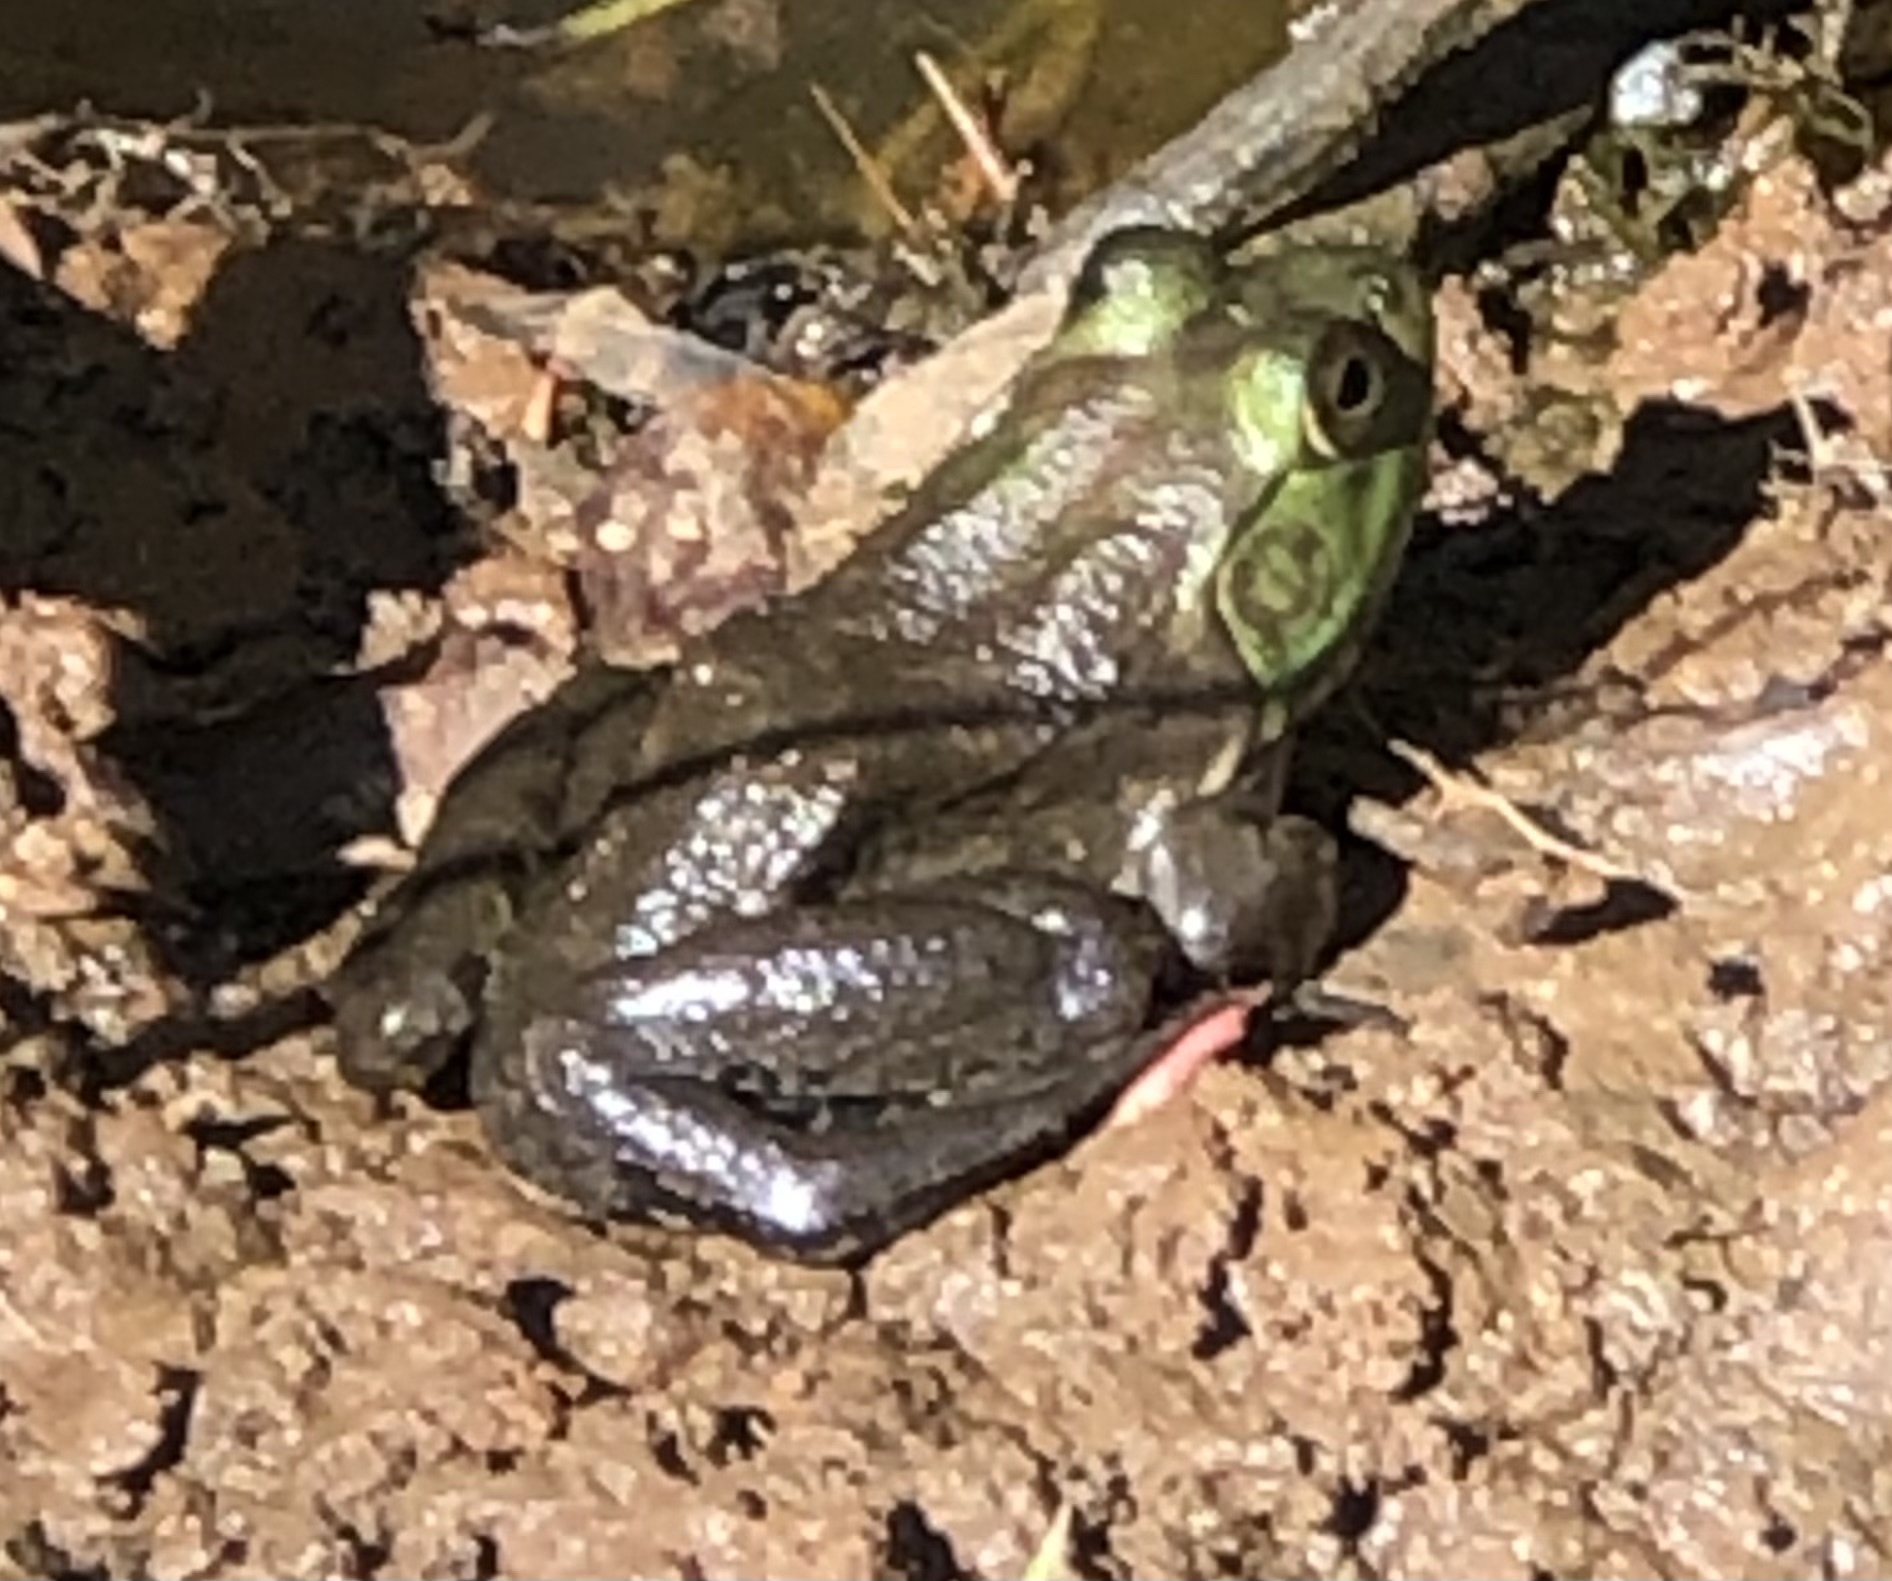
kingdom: Animalia
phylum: Chordata
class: Amphibia
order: Anura
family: Ranidae
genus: Lithobates
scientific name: Lithobates catesbeianus
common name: American bullfrog
